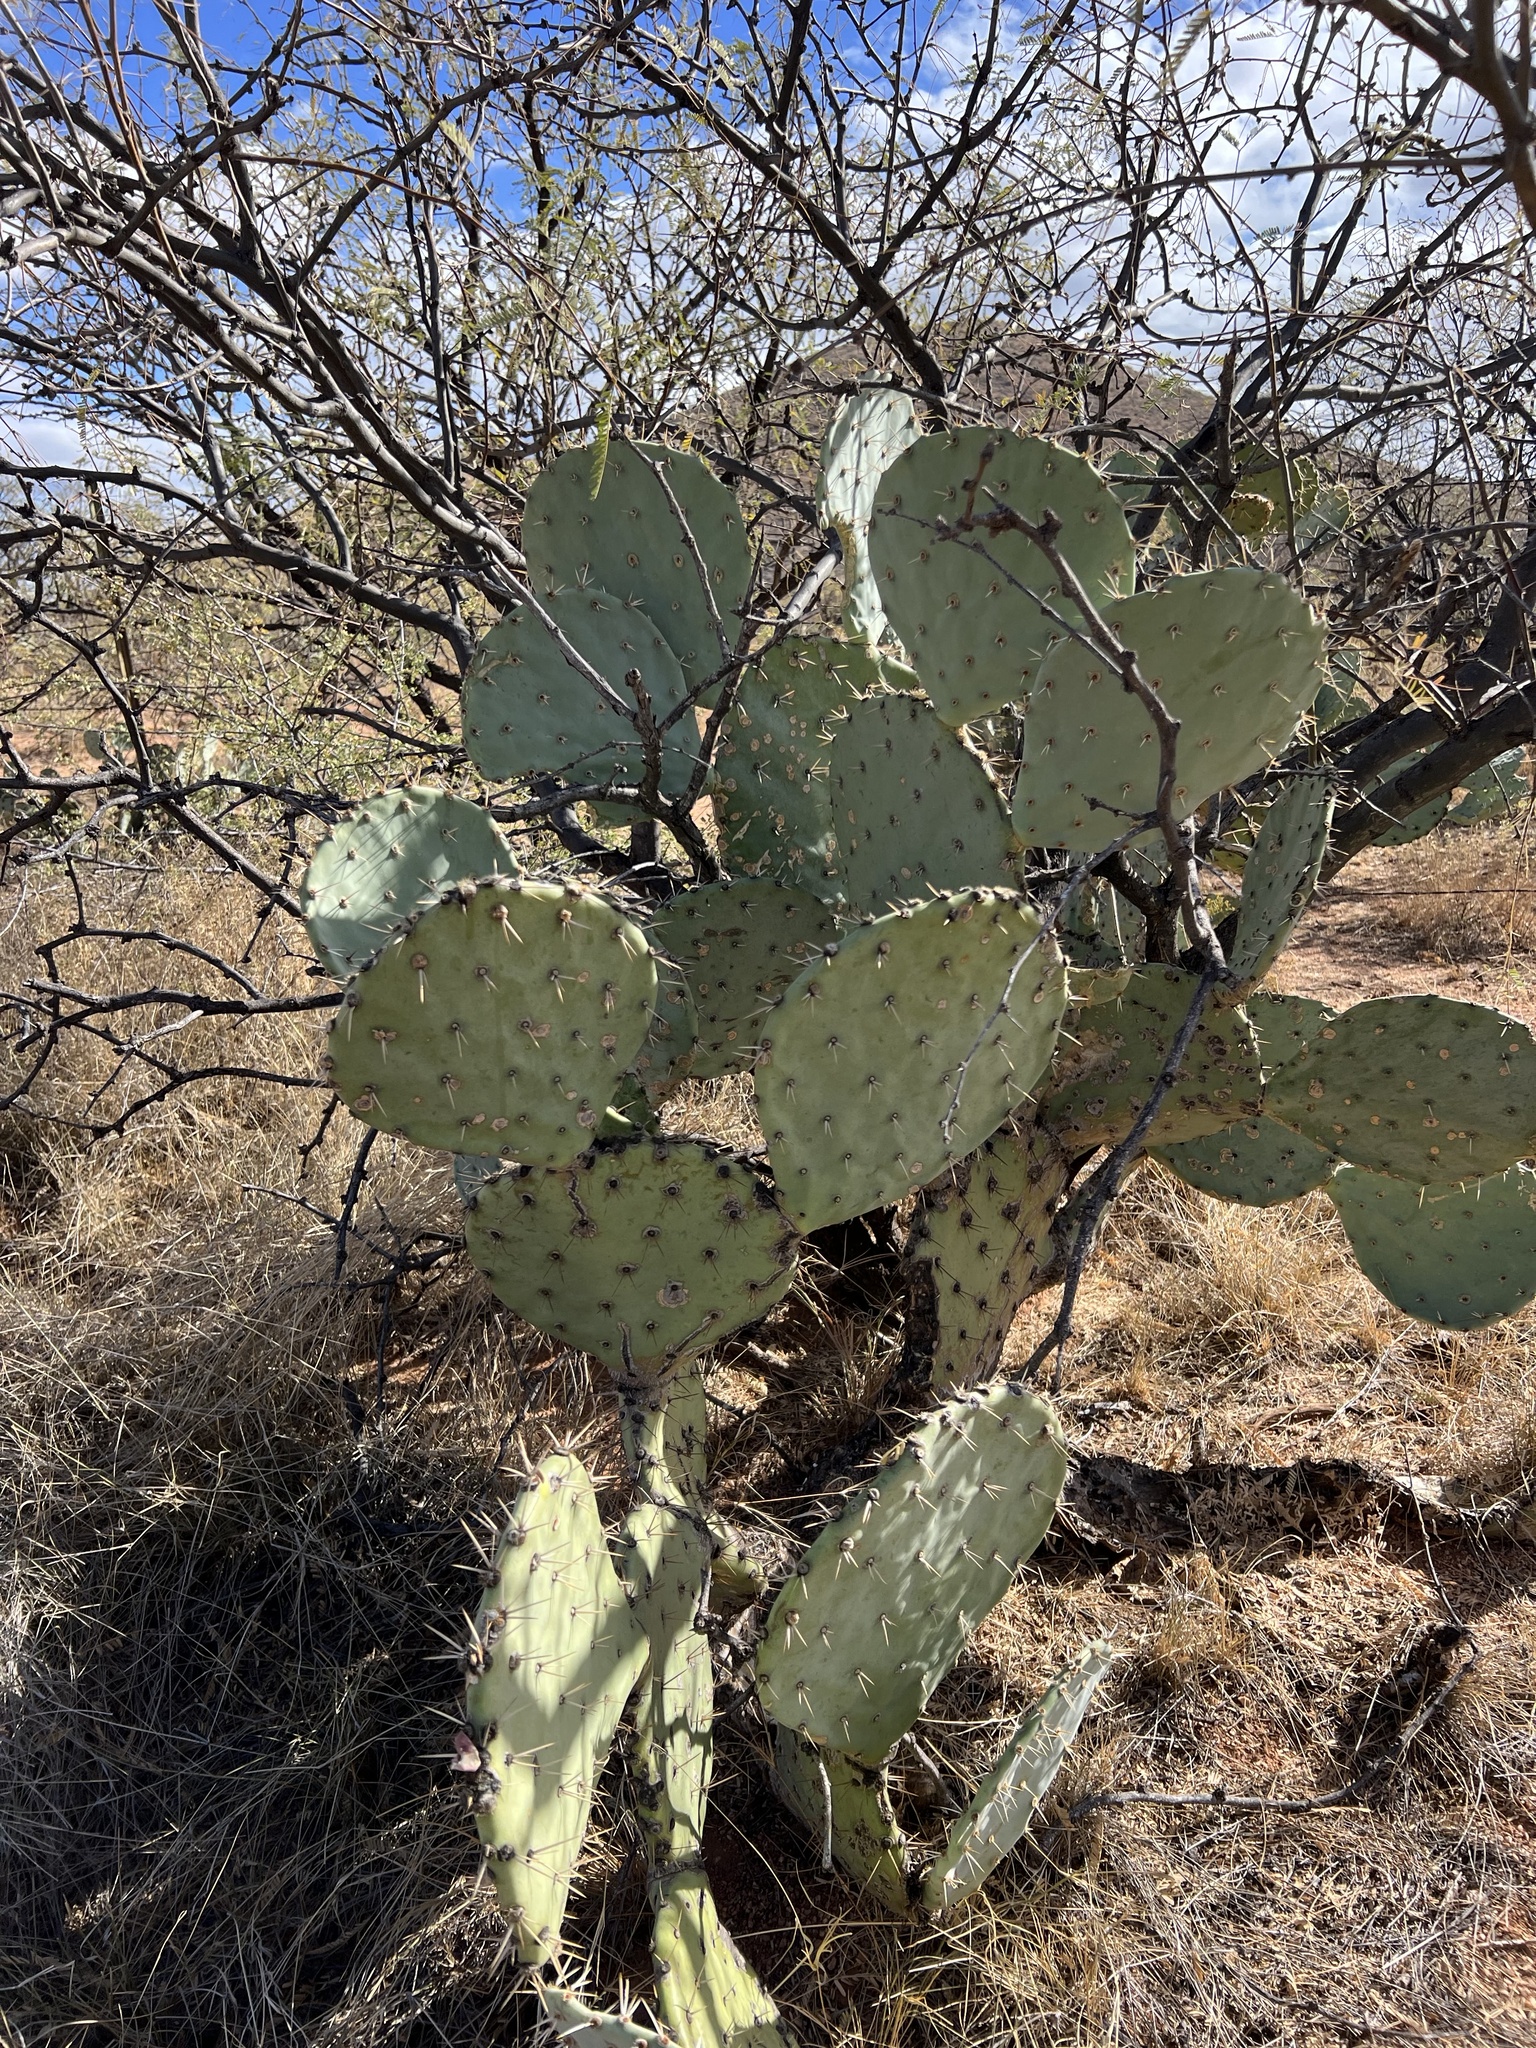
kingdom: Plantae
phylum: Tracheophyta
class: Magnoliopsida
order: Caryophyllales
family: Cactaceae
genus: Opuntia
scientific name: Opuntia engelmannii
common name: Cactus-apple
